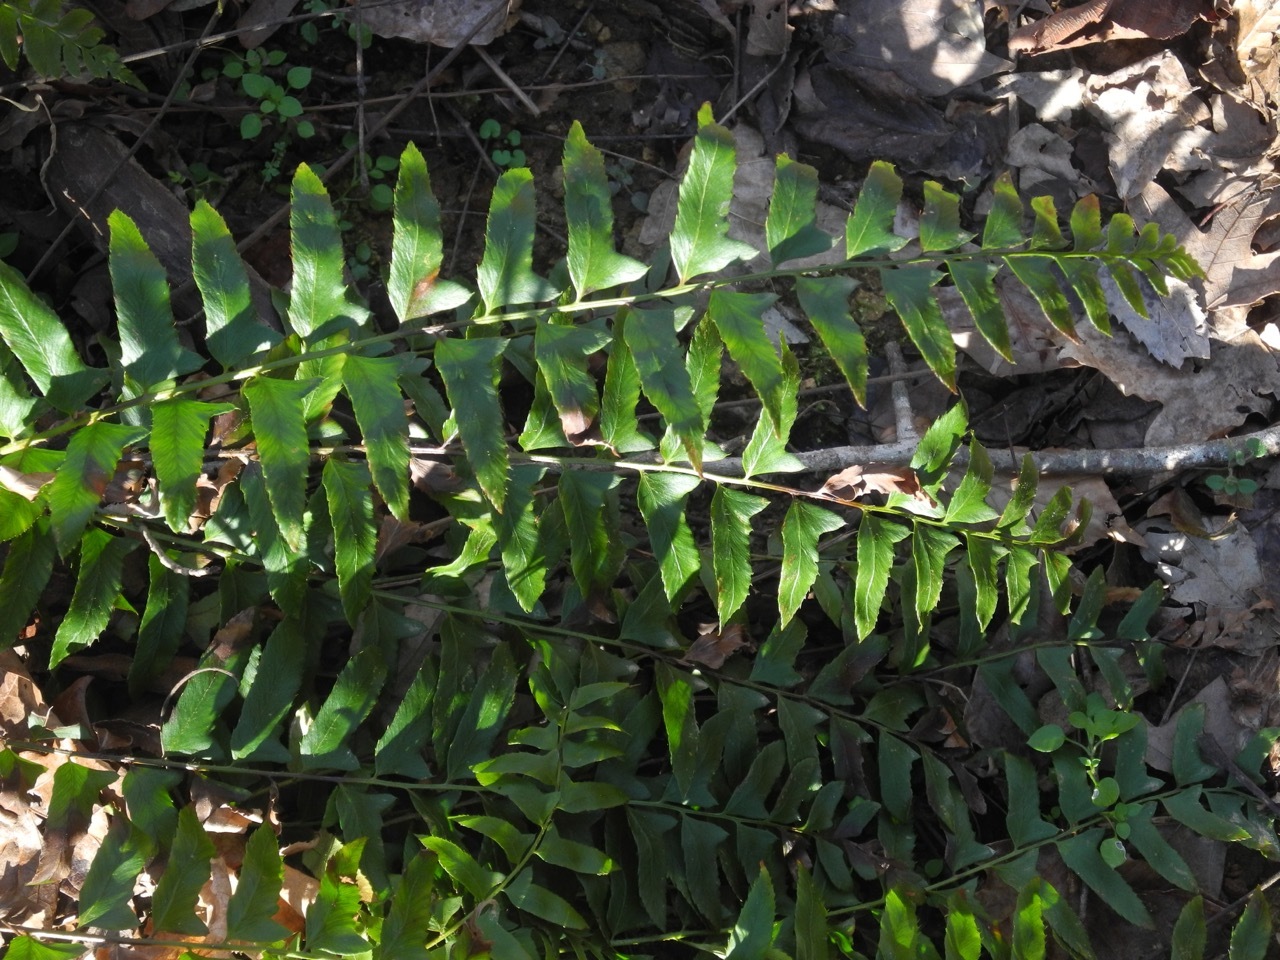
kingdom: Plantae
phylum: Tracheophyta
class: Polypodiopsida
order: Polypodiales
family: Dryopteridaceae
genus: Polystichum
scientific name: Polystichum acrostichoides
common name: Christmas fern
